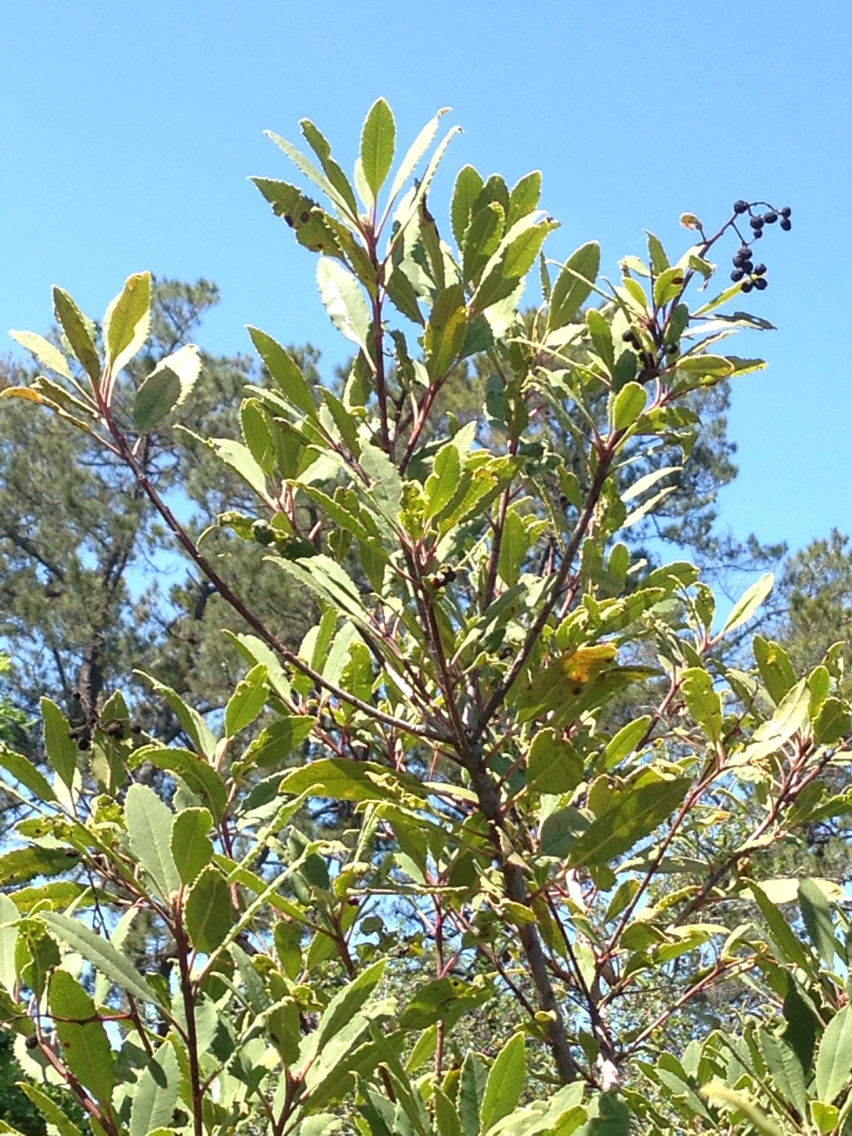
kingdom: Plantae
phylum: Tracheophyta
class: Magnoliopsida
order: Rosales
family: Rosaceae
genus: Heteromeles
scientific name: Heteromeles arbutifolia
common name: California-holly
